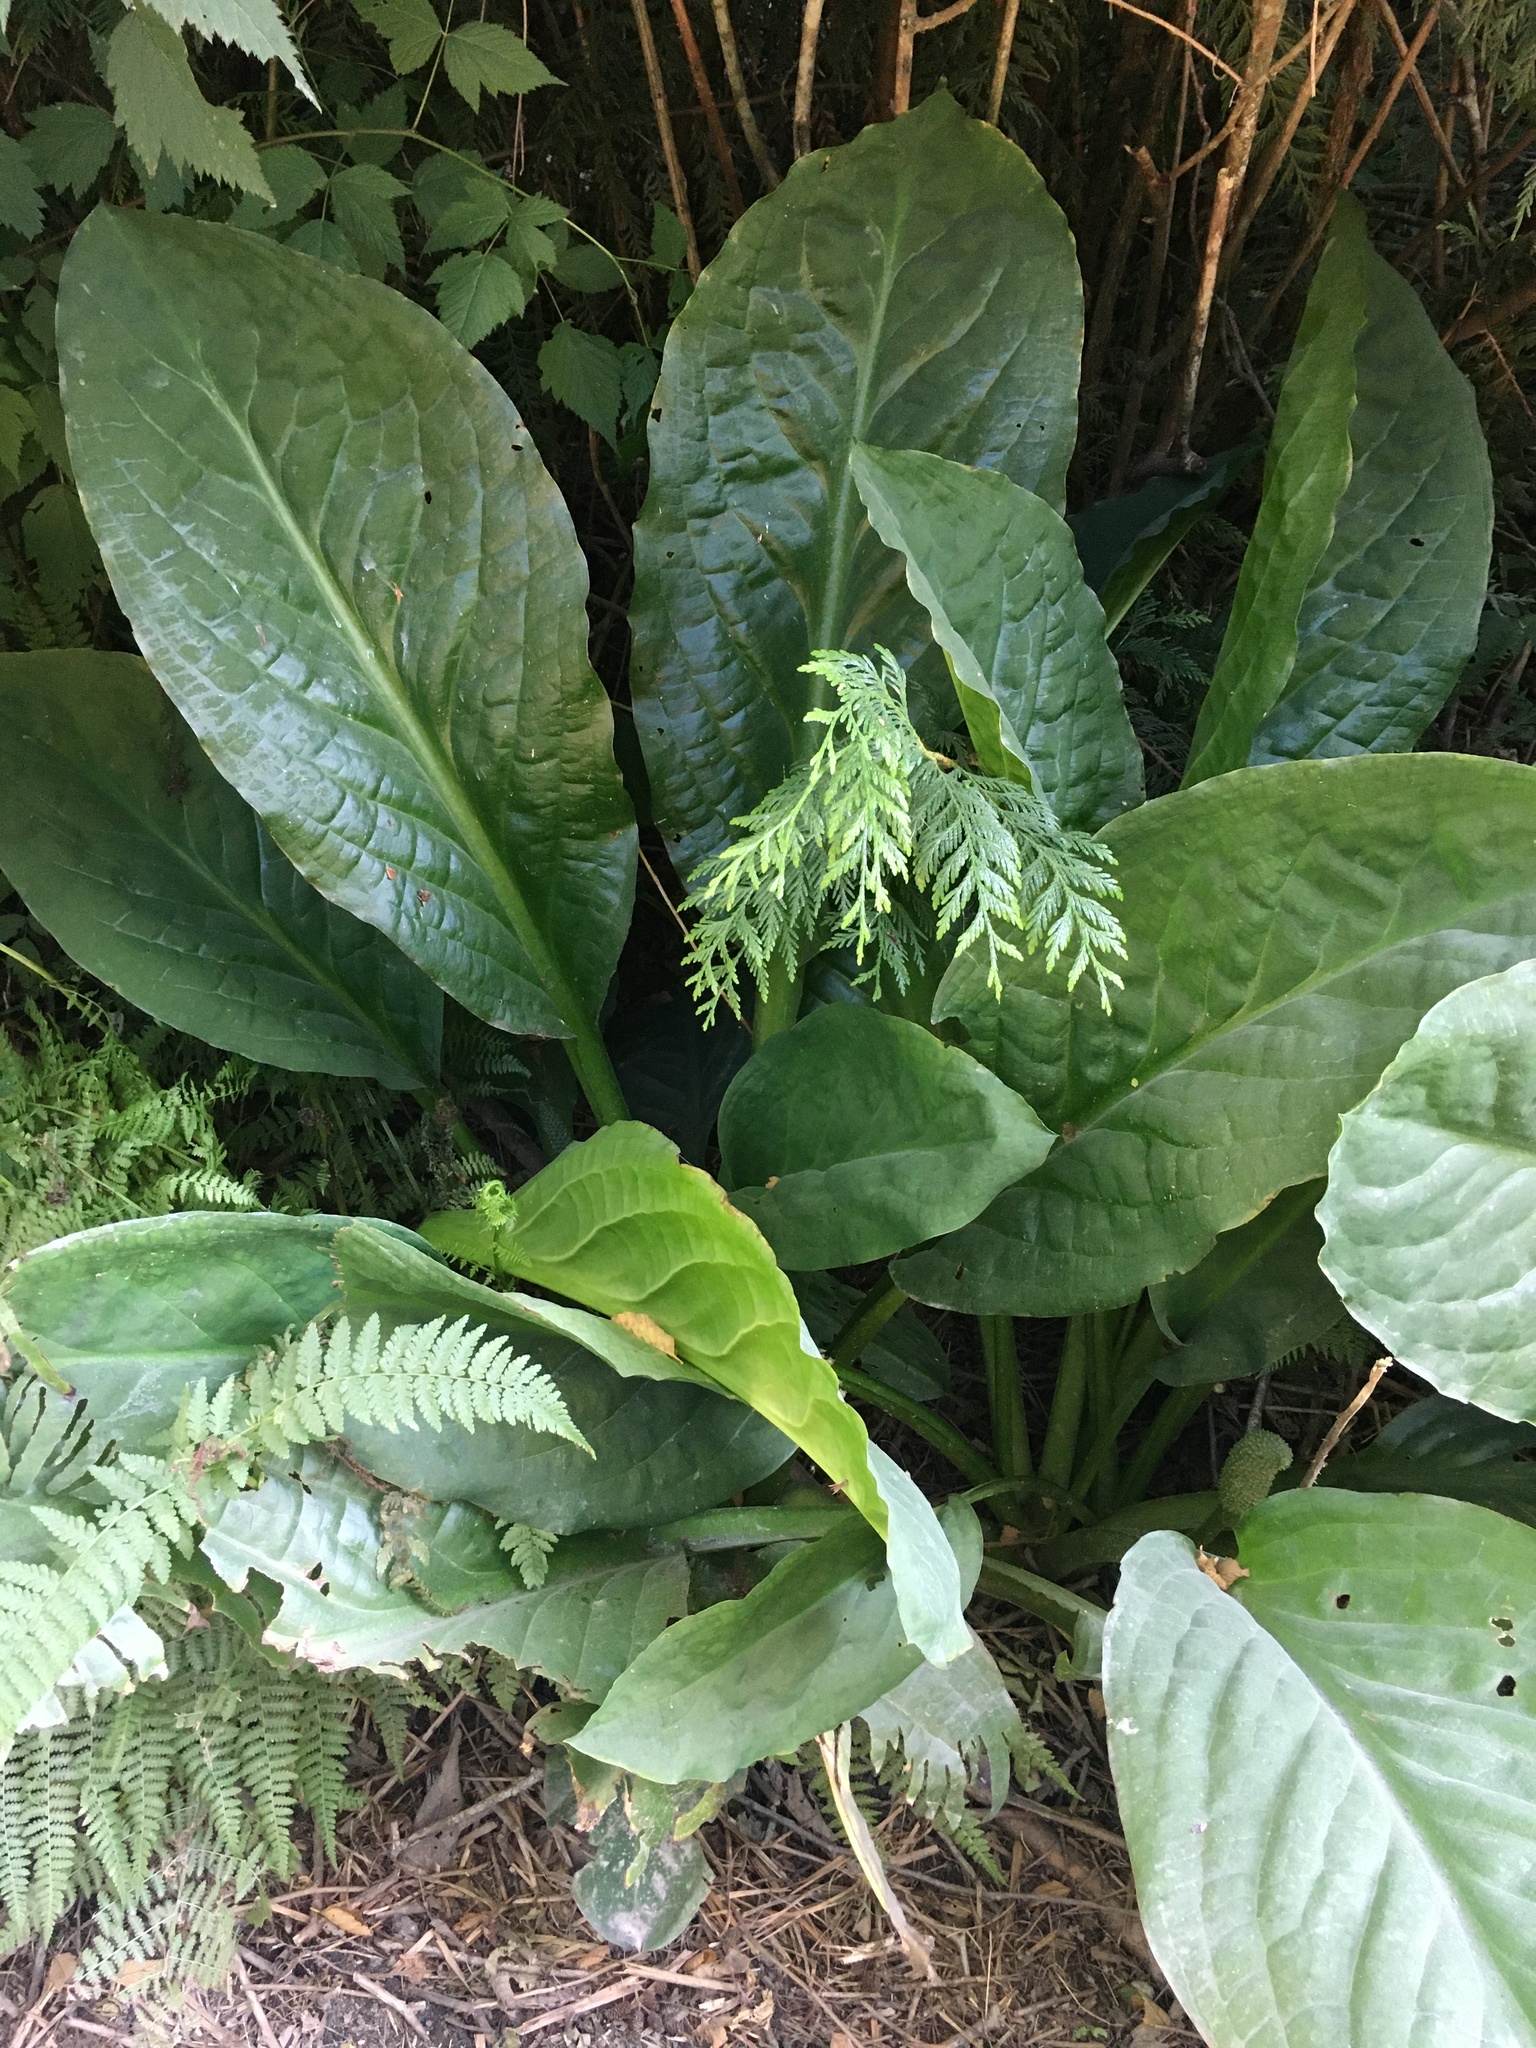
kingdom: Plantae
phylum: Tracheophyta
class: Liliopsida
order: Alismatales
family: Araceae
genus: Lysichiton
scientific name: Lysichiton americanus
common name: American skunk cabbage
